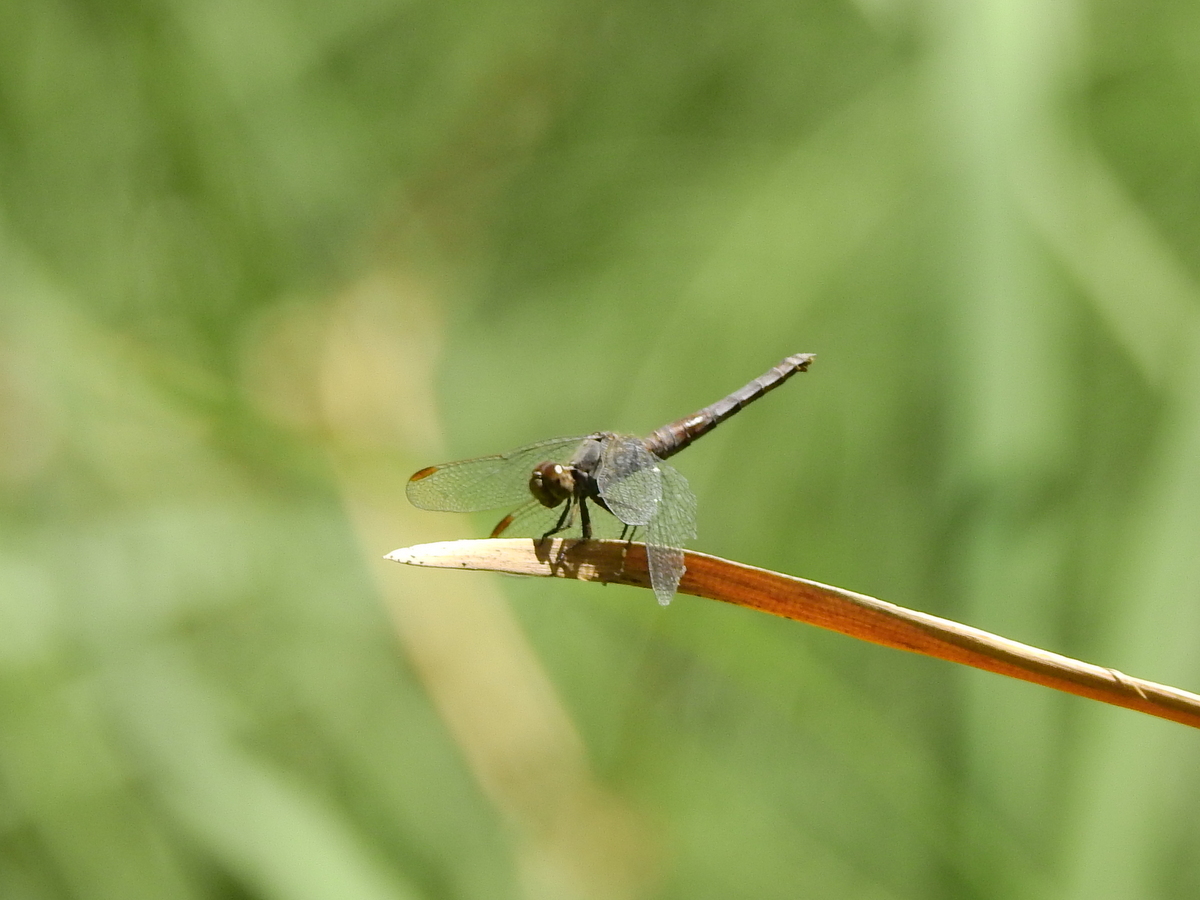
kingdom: Animalia
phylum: Arthropoda
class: Insecta
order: Odonata
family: Libellulidae
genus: Erythrodiplax
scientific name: Erythrodiplax connata
